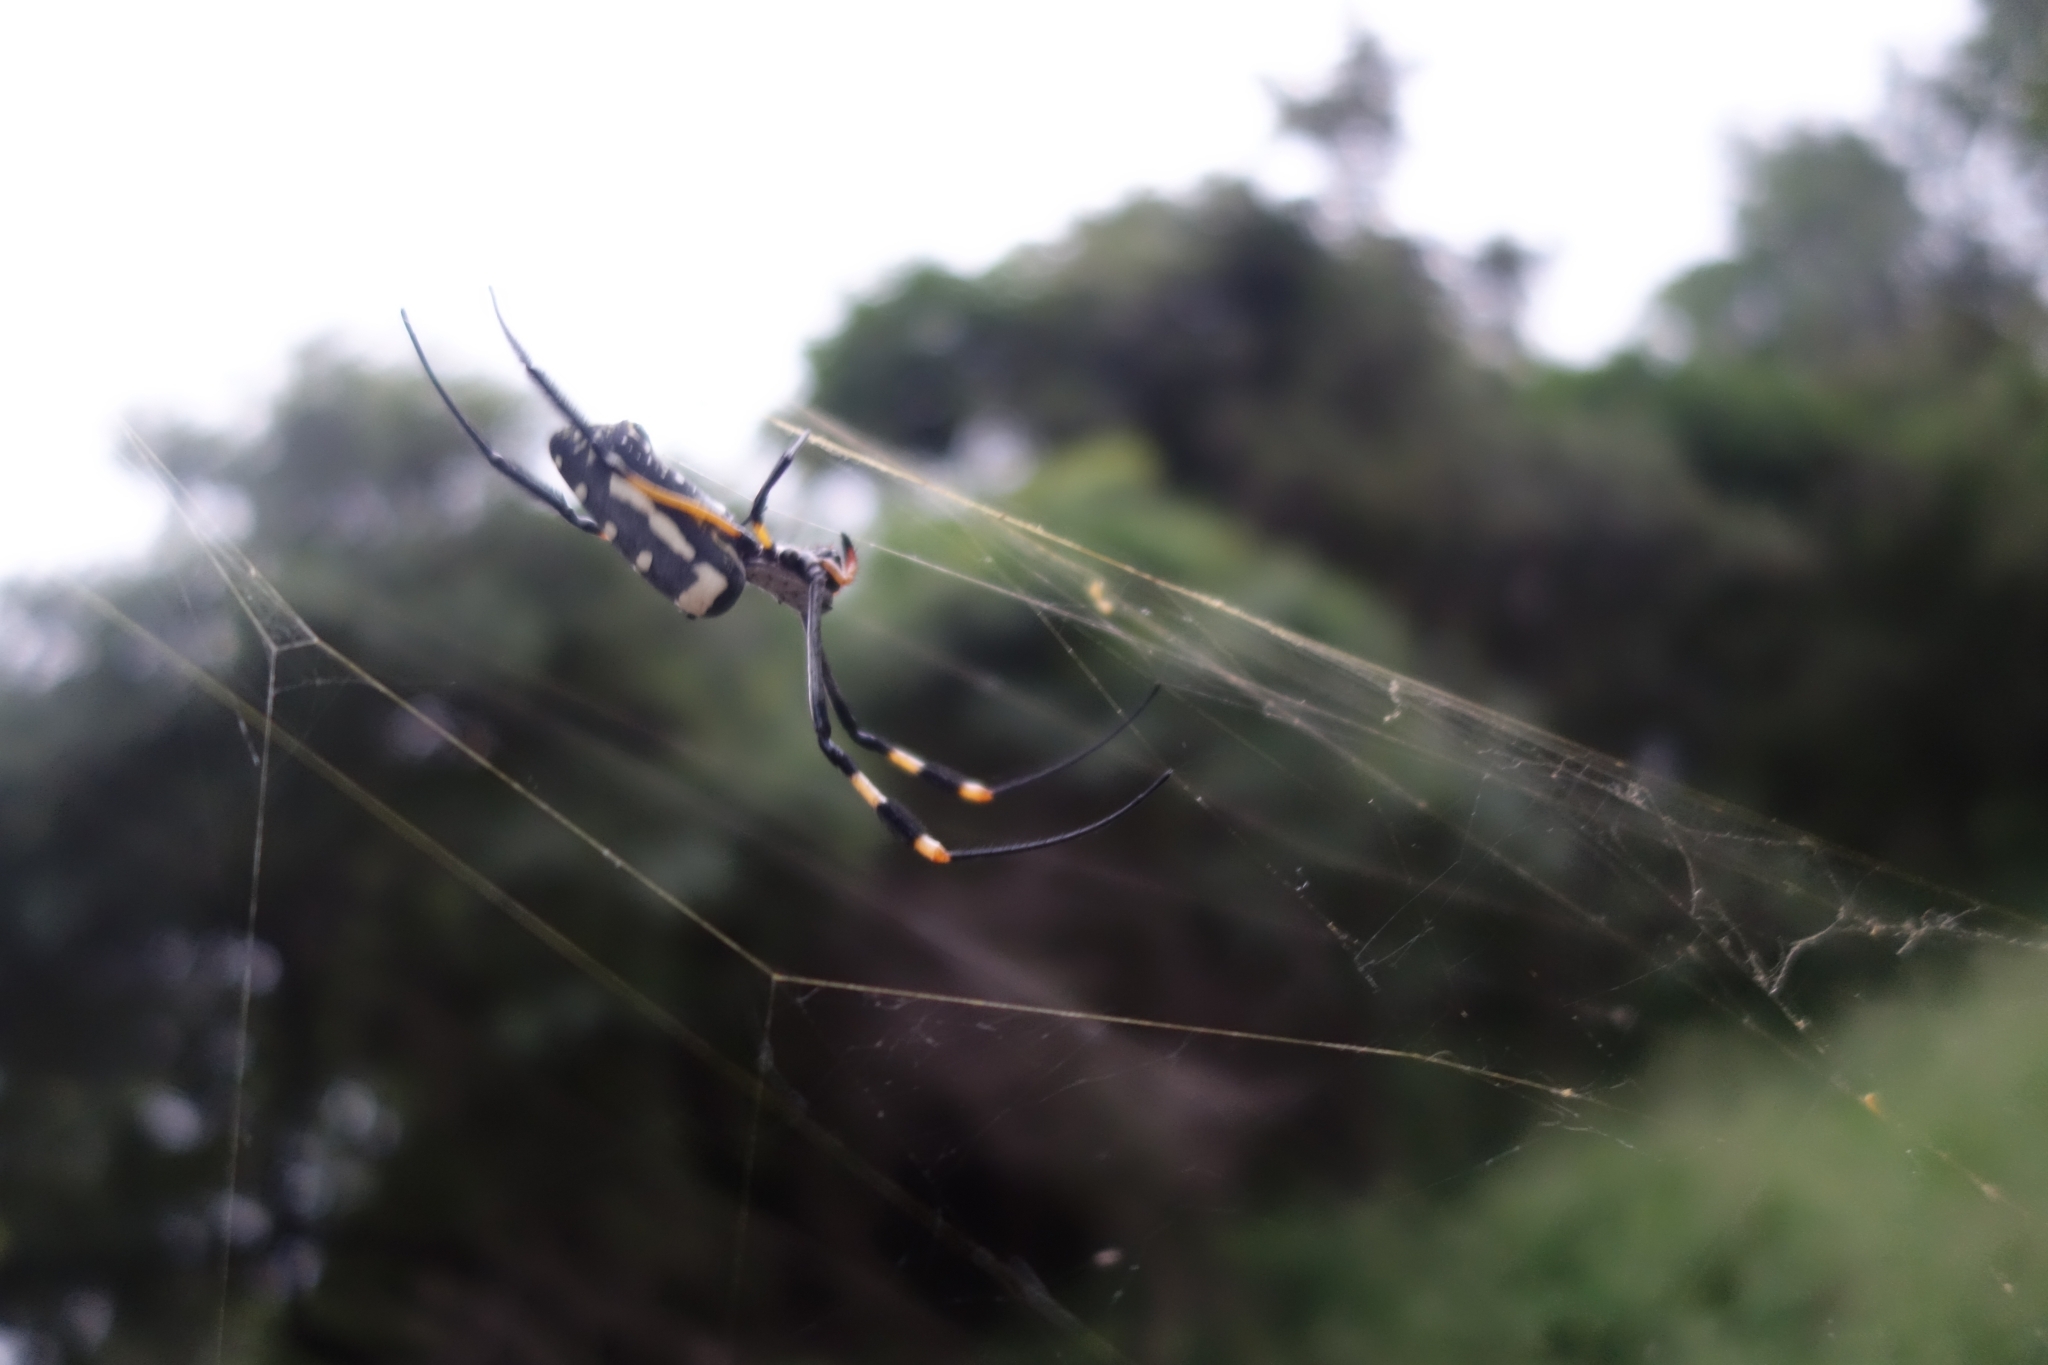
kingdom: Animalia
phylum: Arthropoda
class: Arachnida
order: Araneae
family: Araneidae
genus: Trichonephila
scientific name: Trichonephila senegalensis
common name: Banded golden orb weaver
